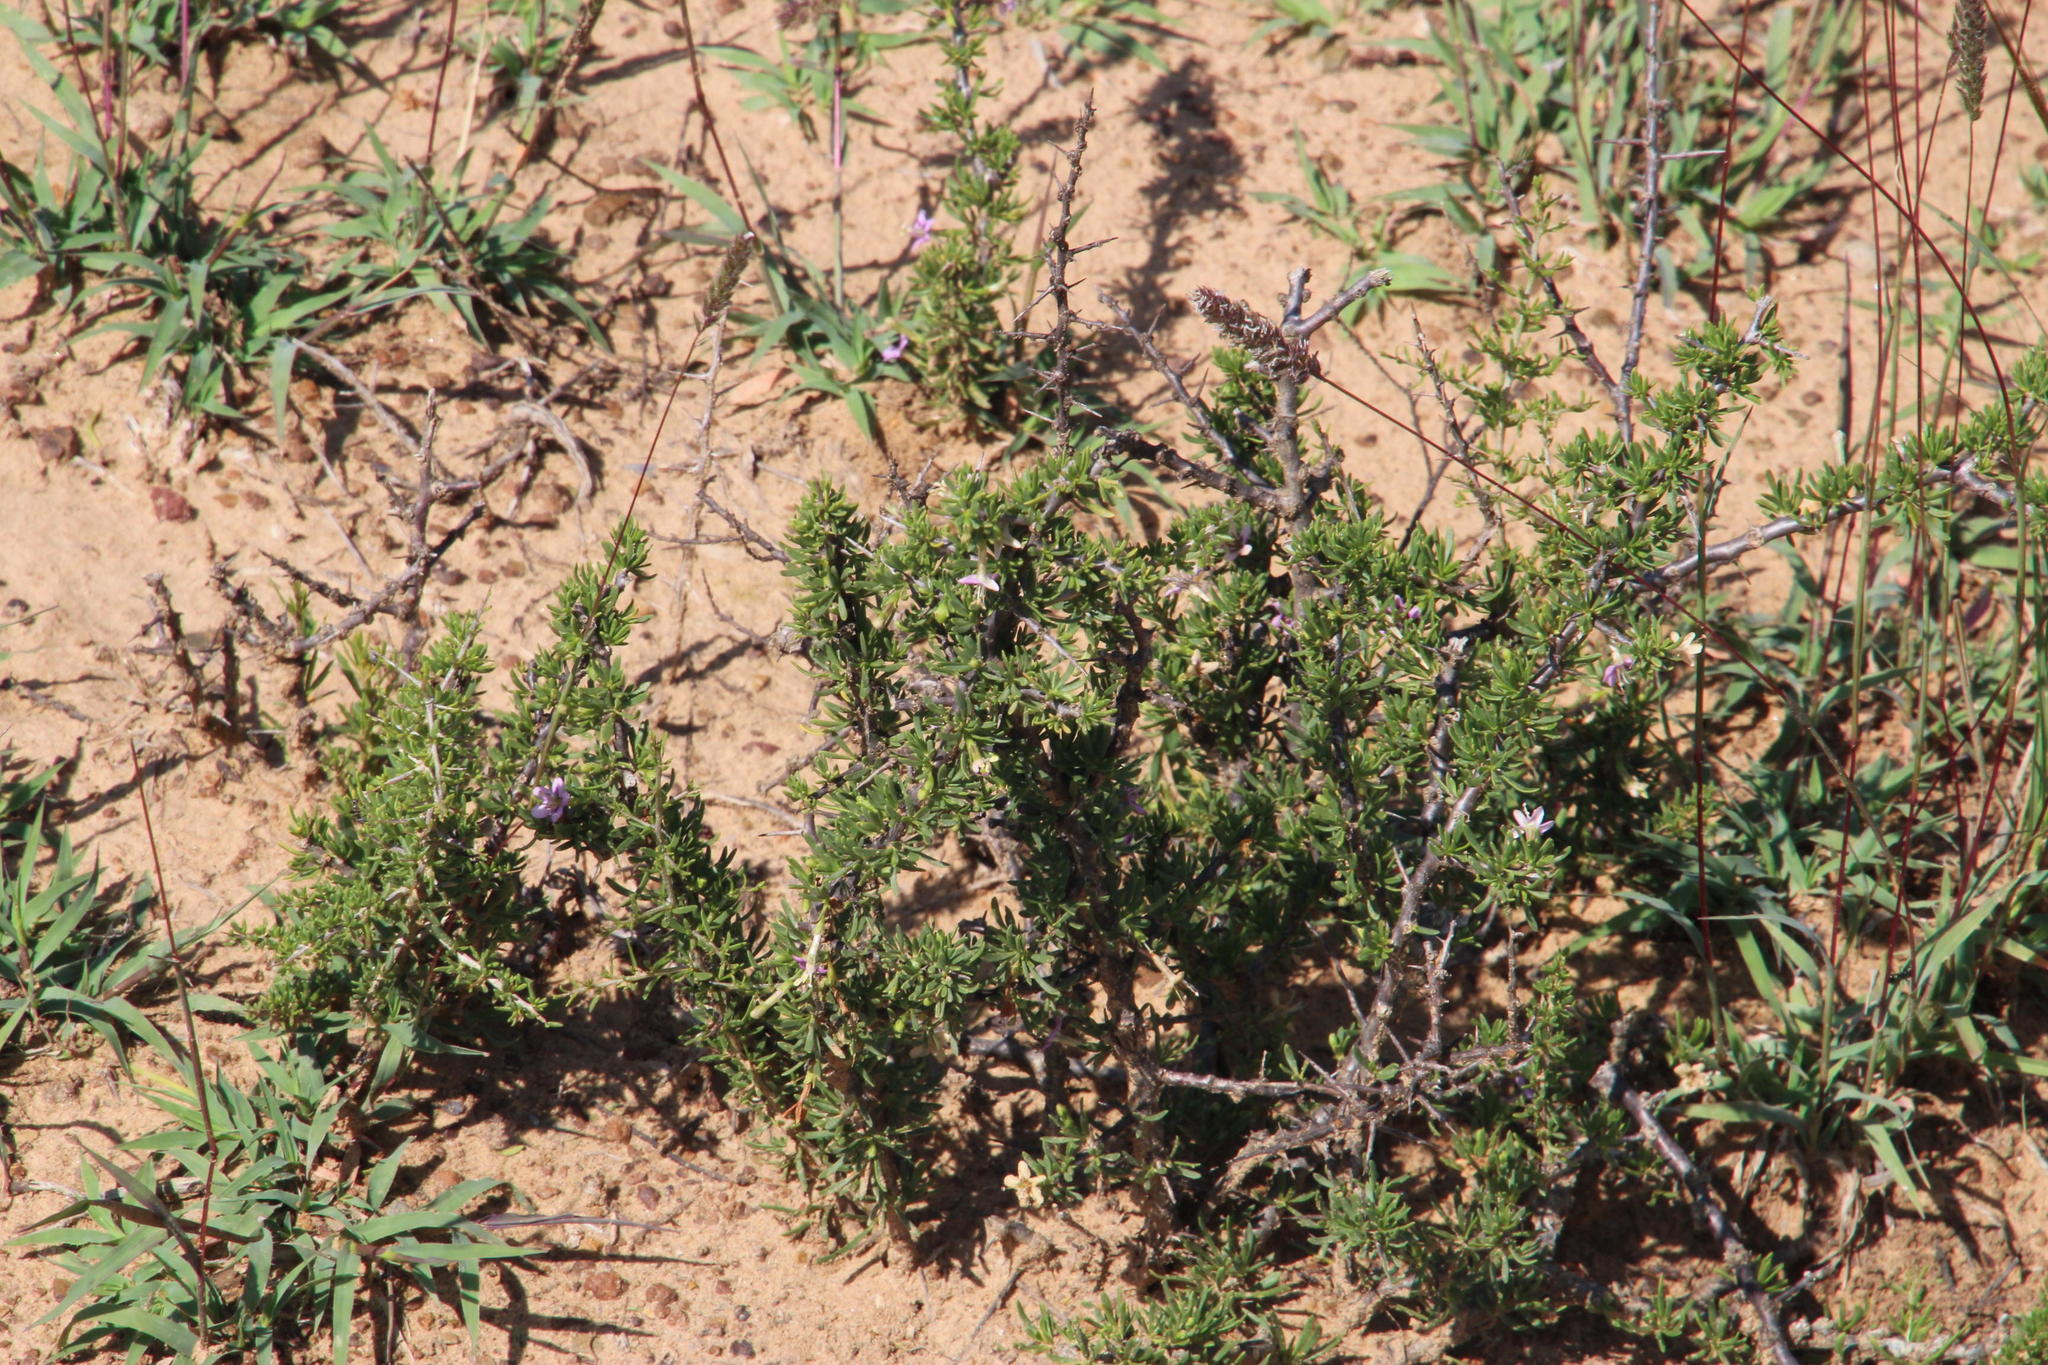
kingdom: Plantae
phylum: Tracheophyta
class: Magnoliopsida
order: Solanales
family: Solanaceae
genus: Lycium
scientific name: Lycium cinereum
